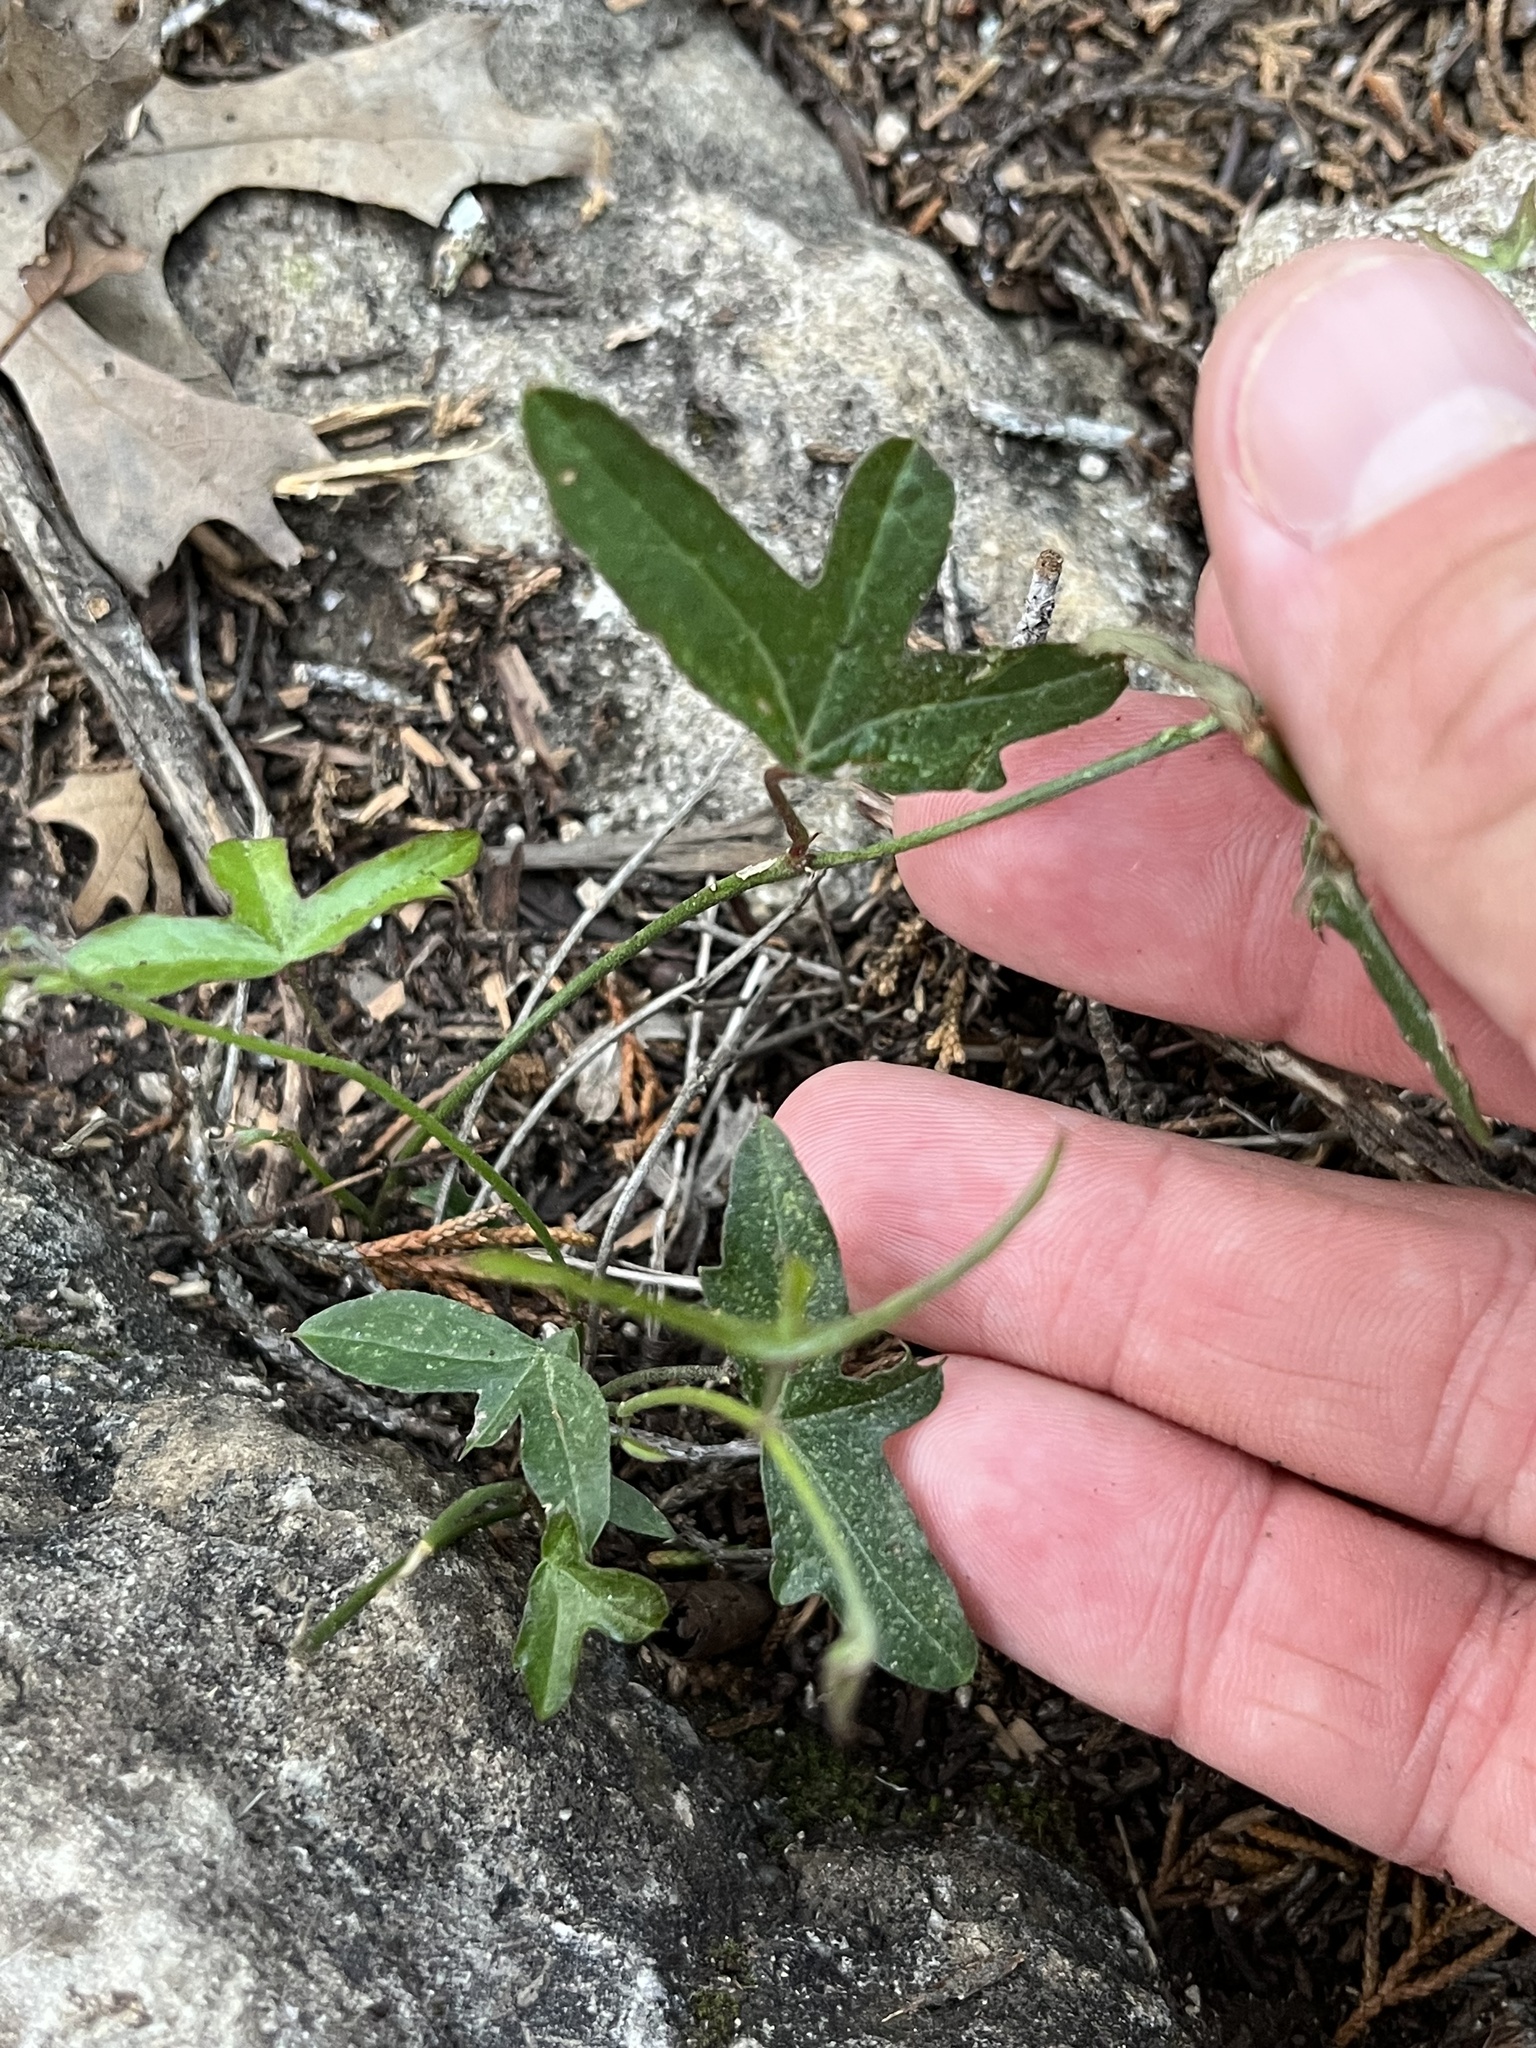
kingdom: Plantae
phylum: Tracheophyta
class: Magnoliopsida
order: Malpighiales
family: Passifloraceae
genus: Passiflora
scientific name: Passiflora tenuiloba
